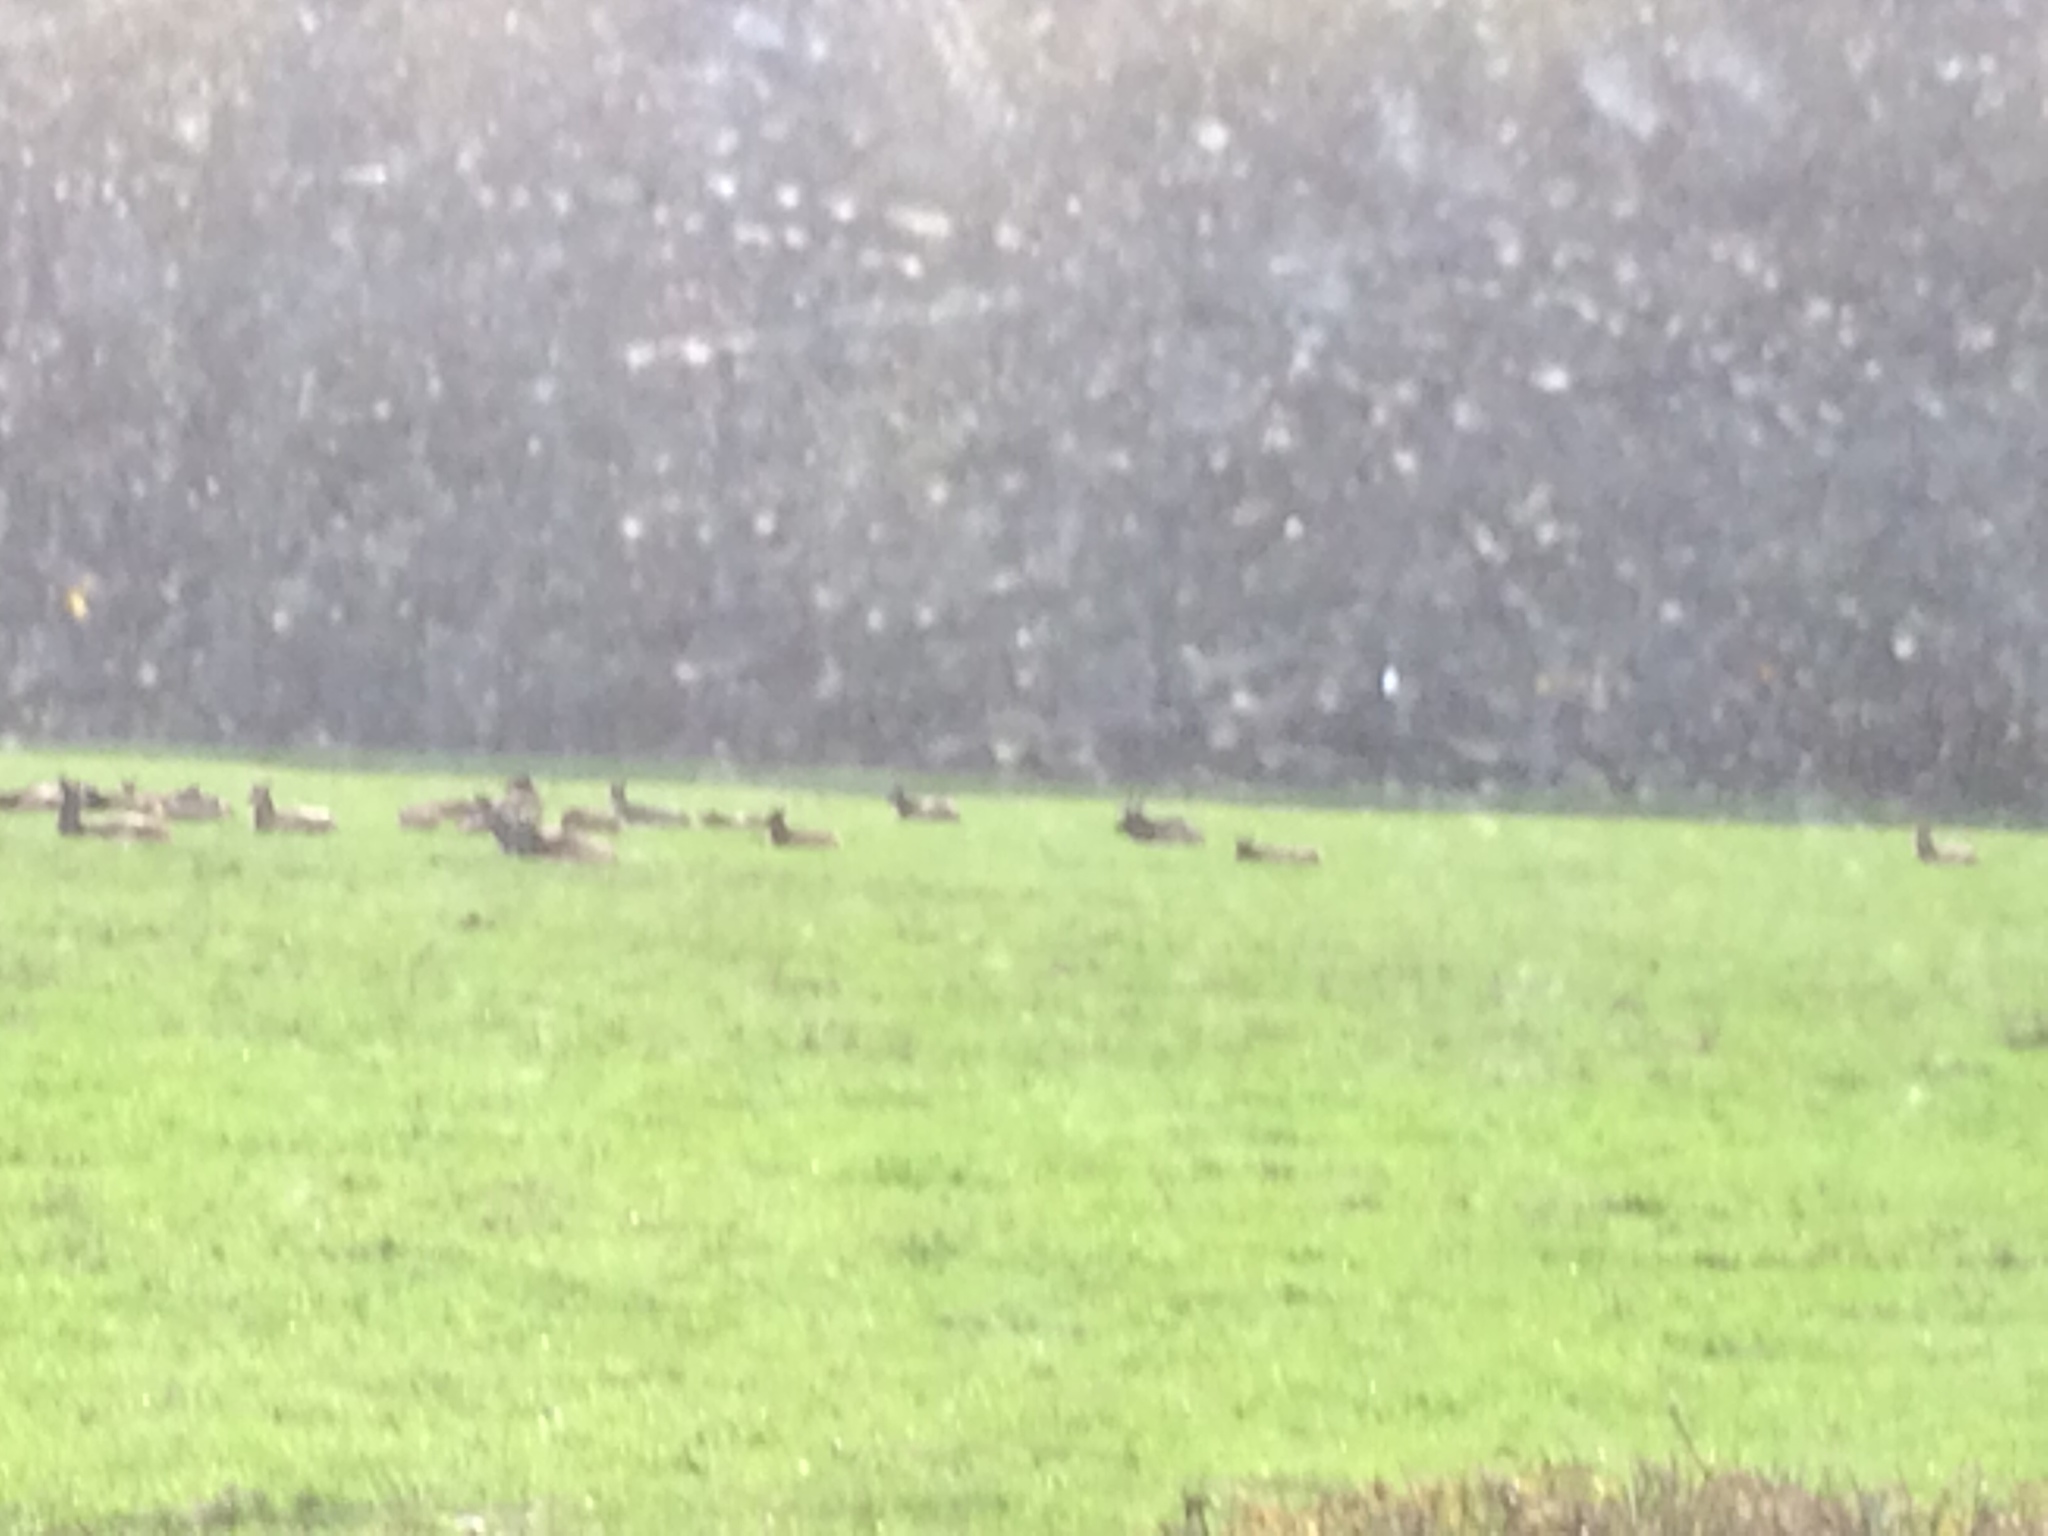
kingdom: Animalia
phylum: Chordata
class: Mammalia
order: Artiodactyla
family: Cervidae
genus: Cervus
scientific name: Cervus elaphus
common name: Red deer
